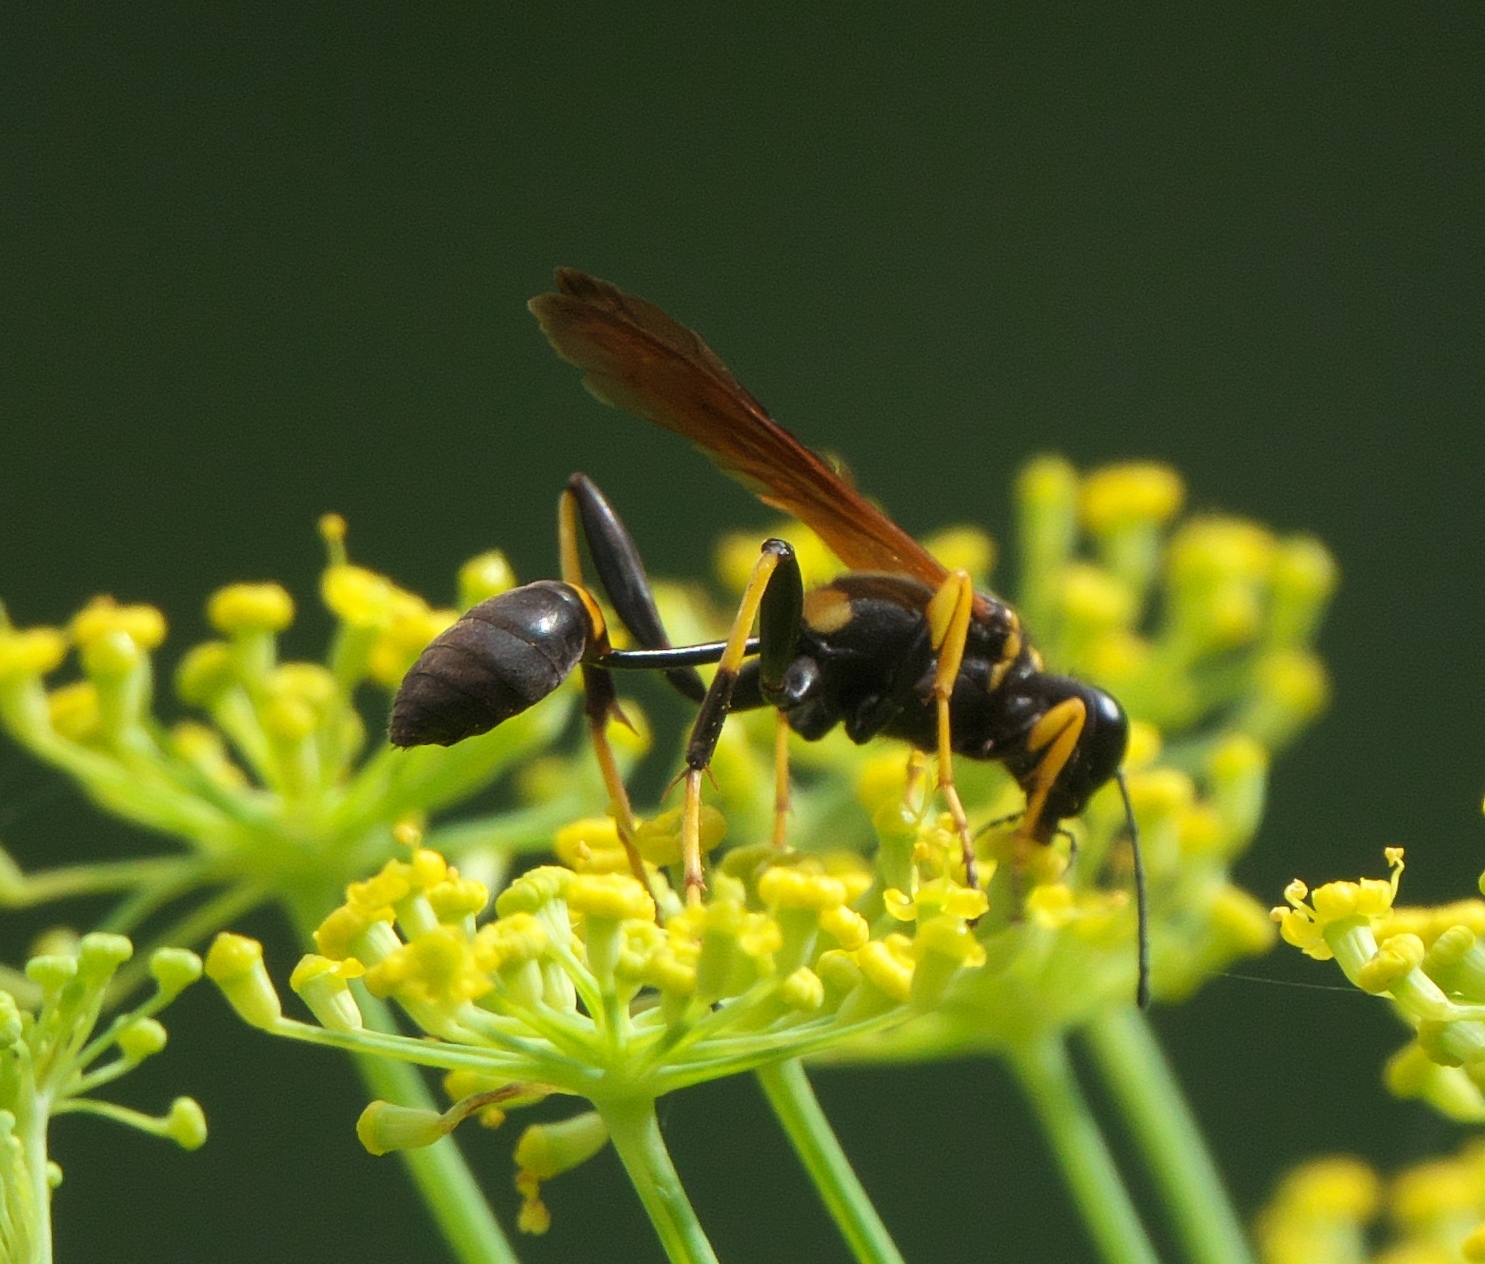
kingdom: Animalia
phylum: Arthropoda
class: Insecta
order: Hymenoptera
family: Sphecidae
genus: Sceliphron
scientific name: Sceliphron caementarium
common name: Mud dauber
